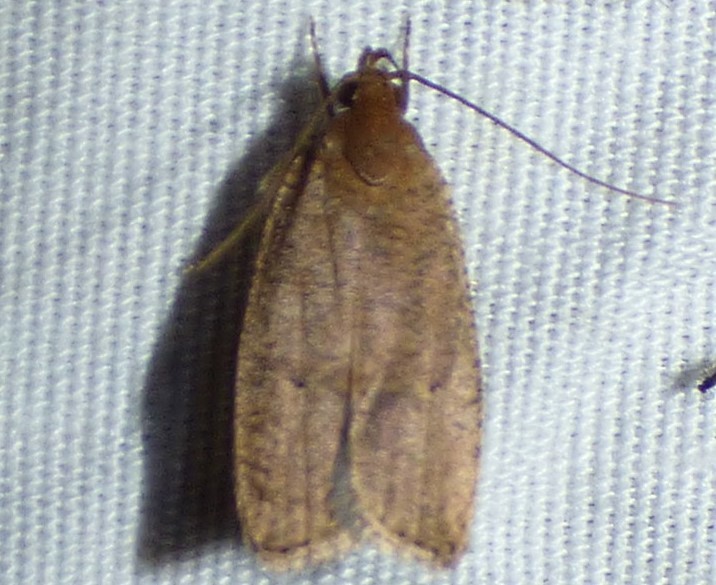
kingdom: Animalia
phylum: Arthropoda
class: Insecta
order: Lepidoptera
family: Depressariidae
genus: Psilocorsis
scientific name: Psilocorsis reflexella
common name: Dotted leaftier moth
